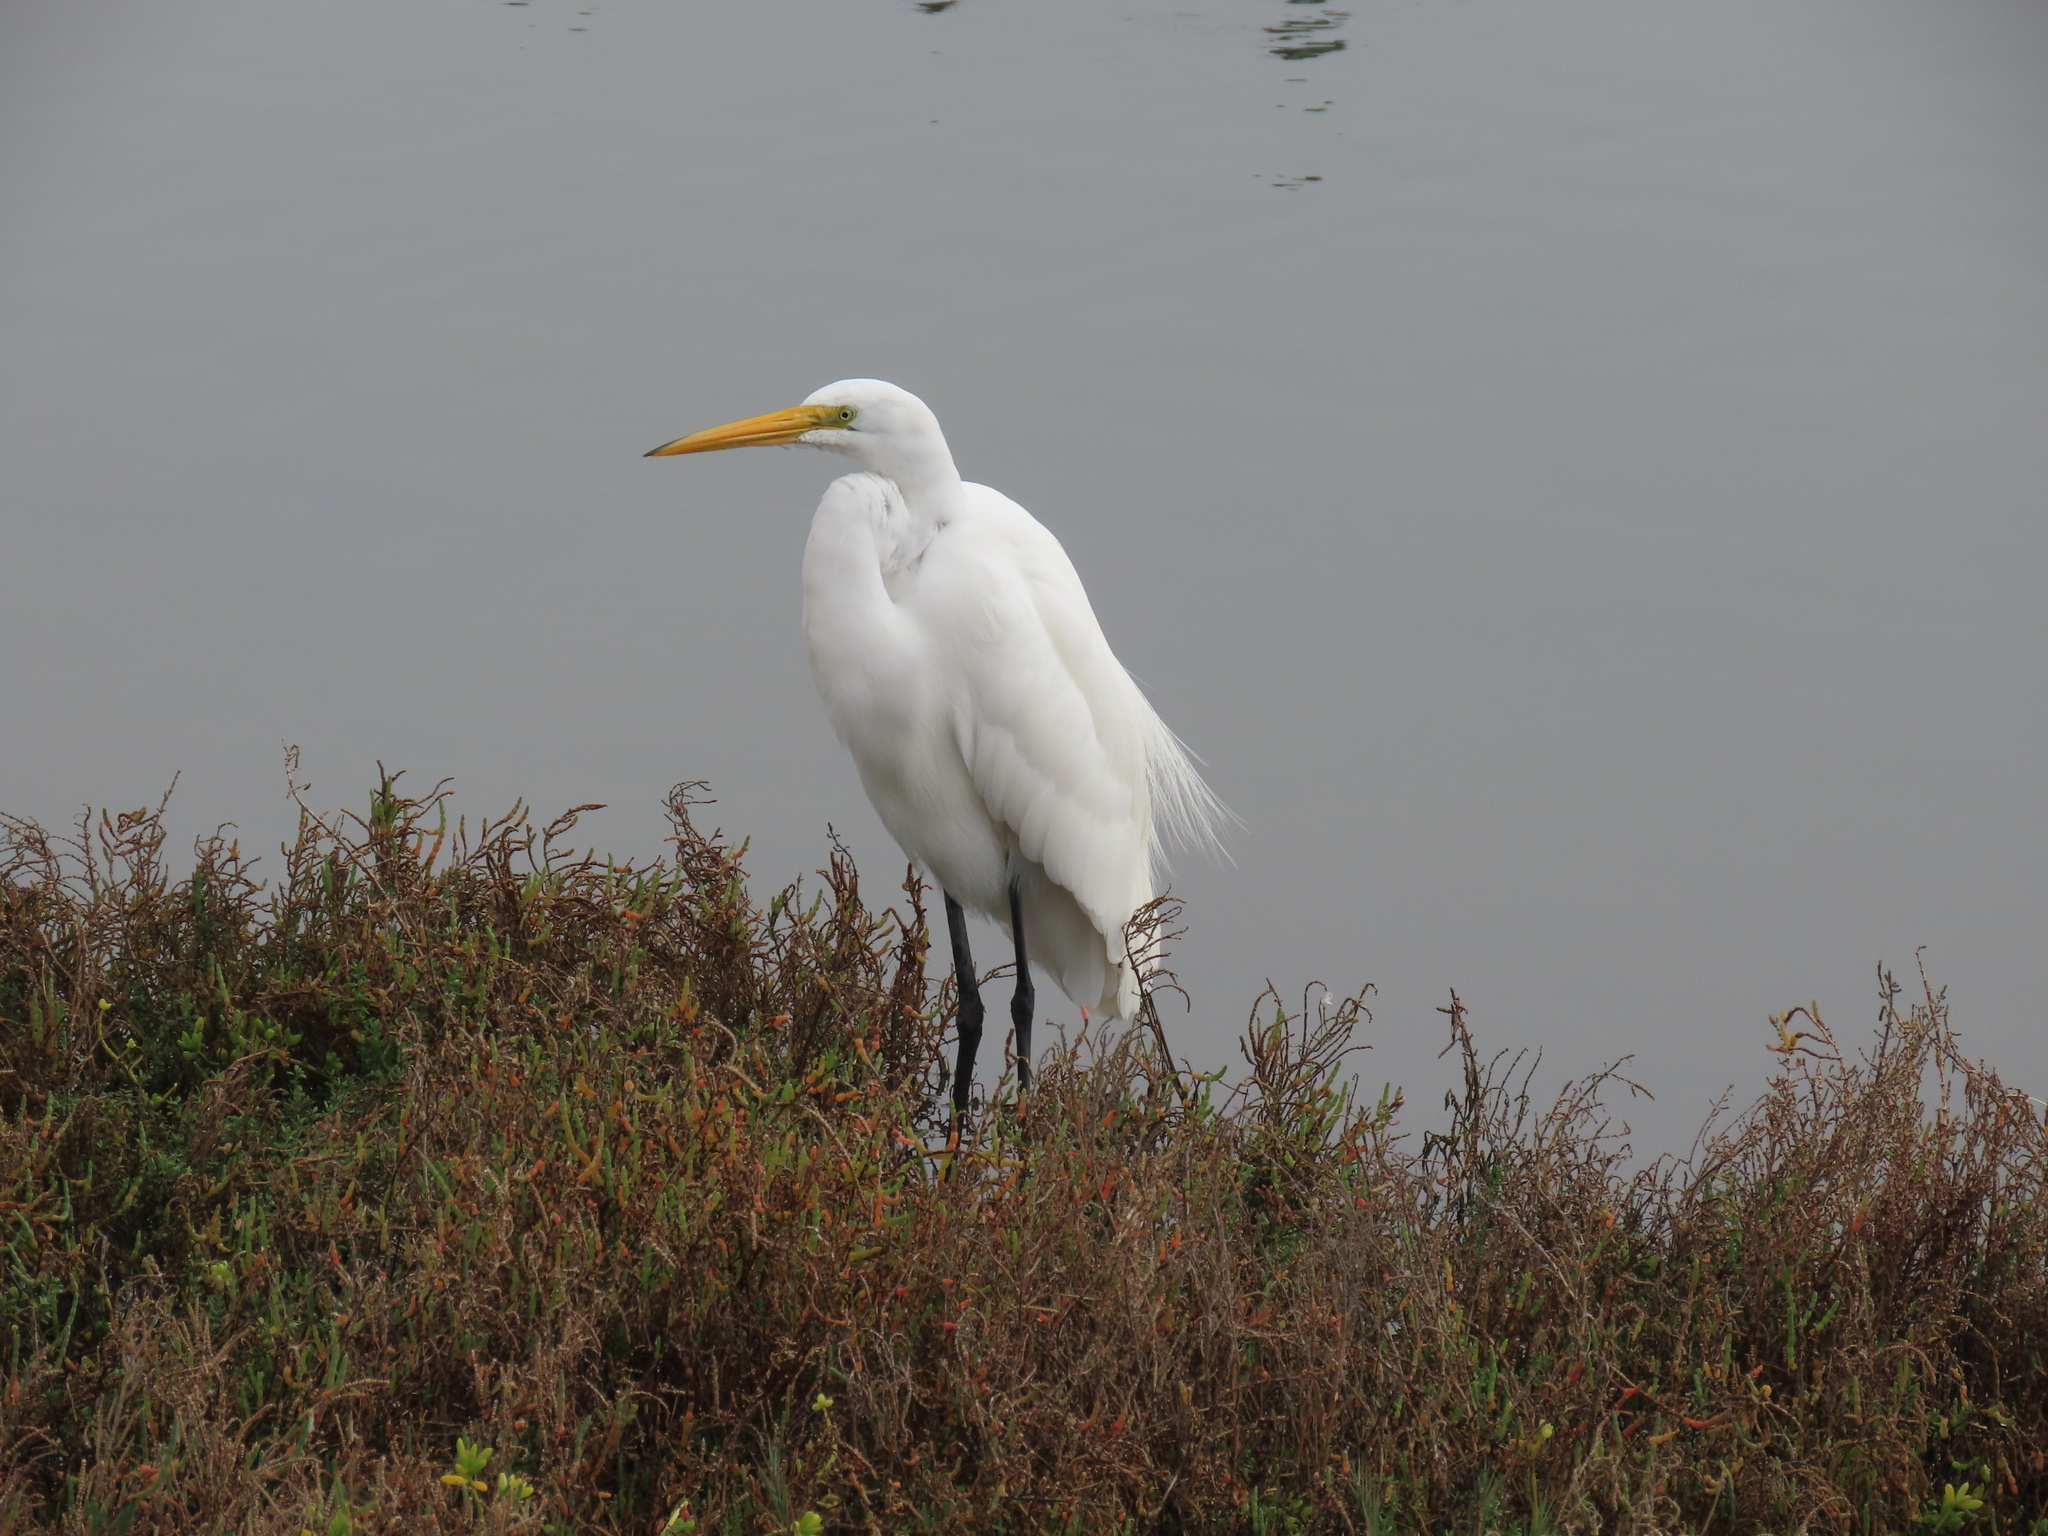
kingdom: Animalia
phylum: Chordata
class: Aves
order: Pelecaniformes
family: Ardeidae
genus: Ardea
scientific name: Ardea alba
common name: Great egret
